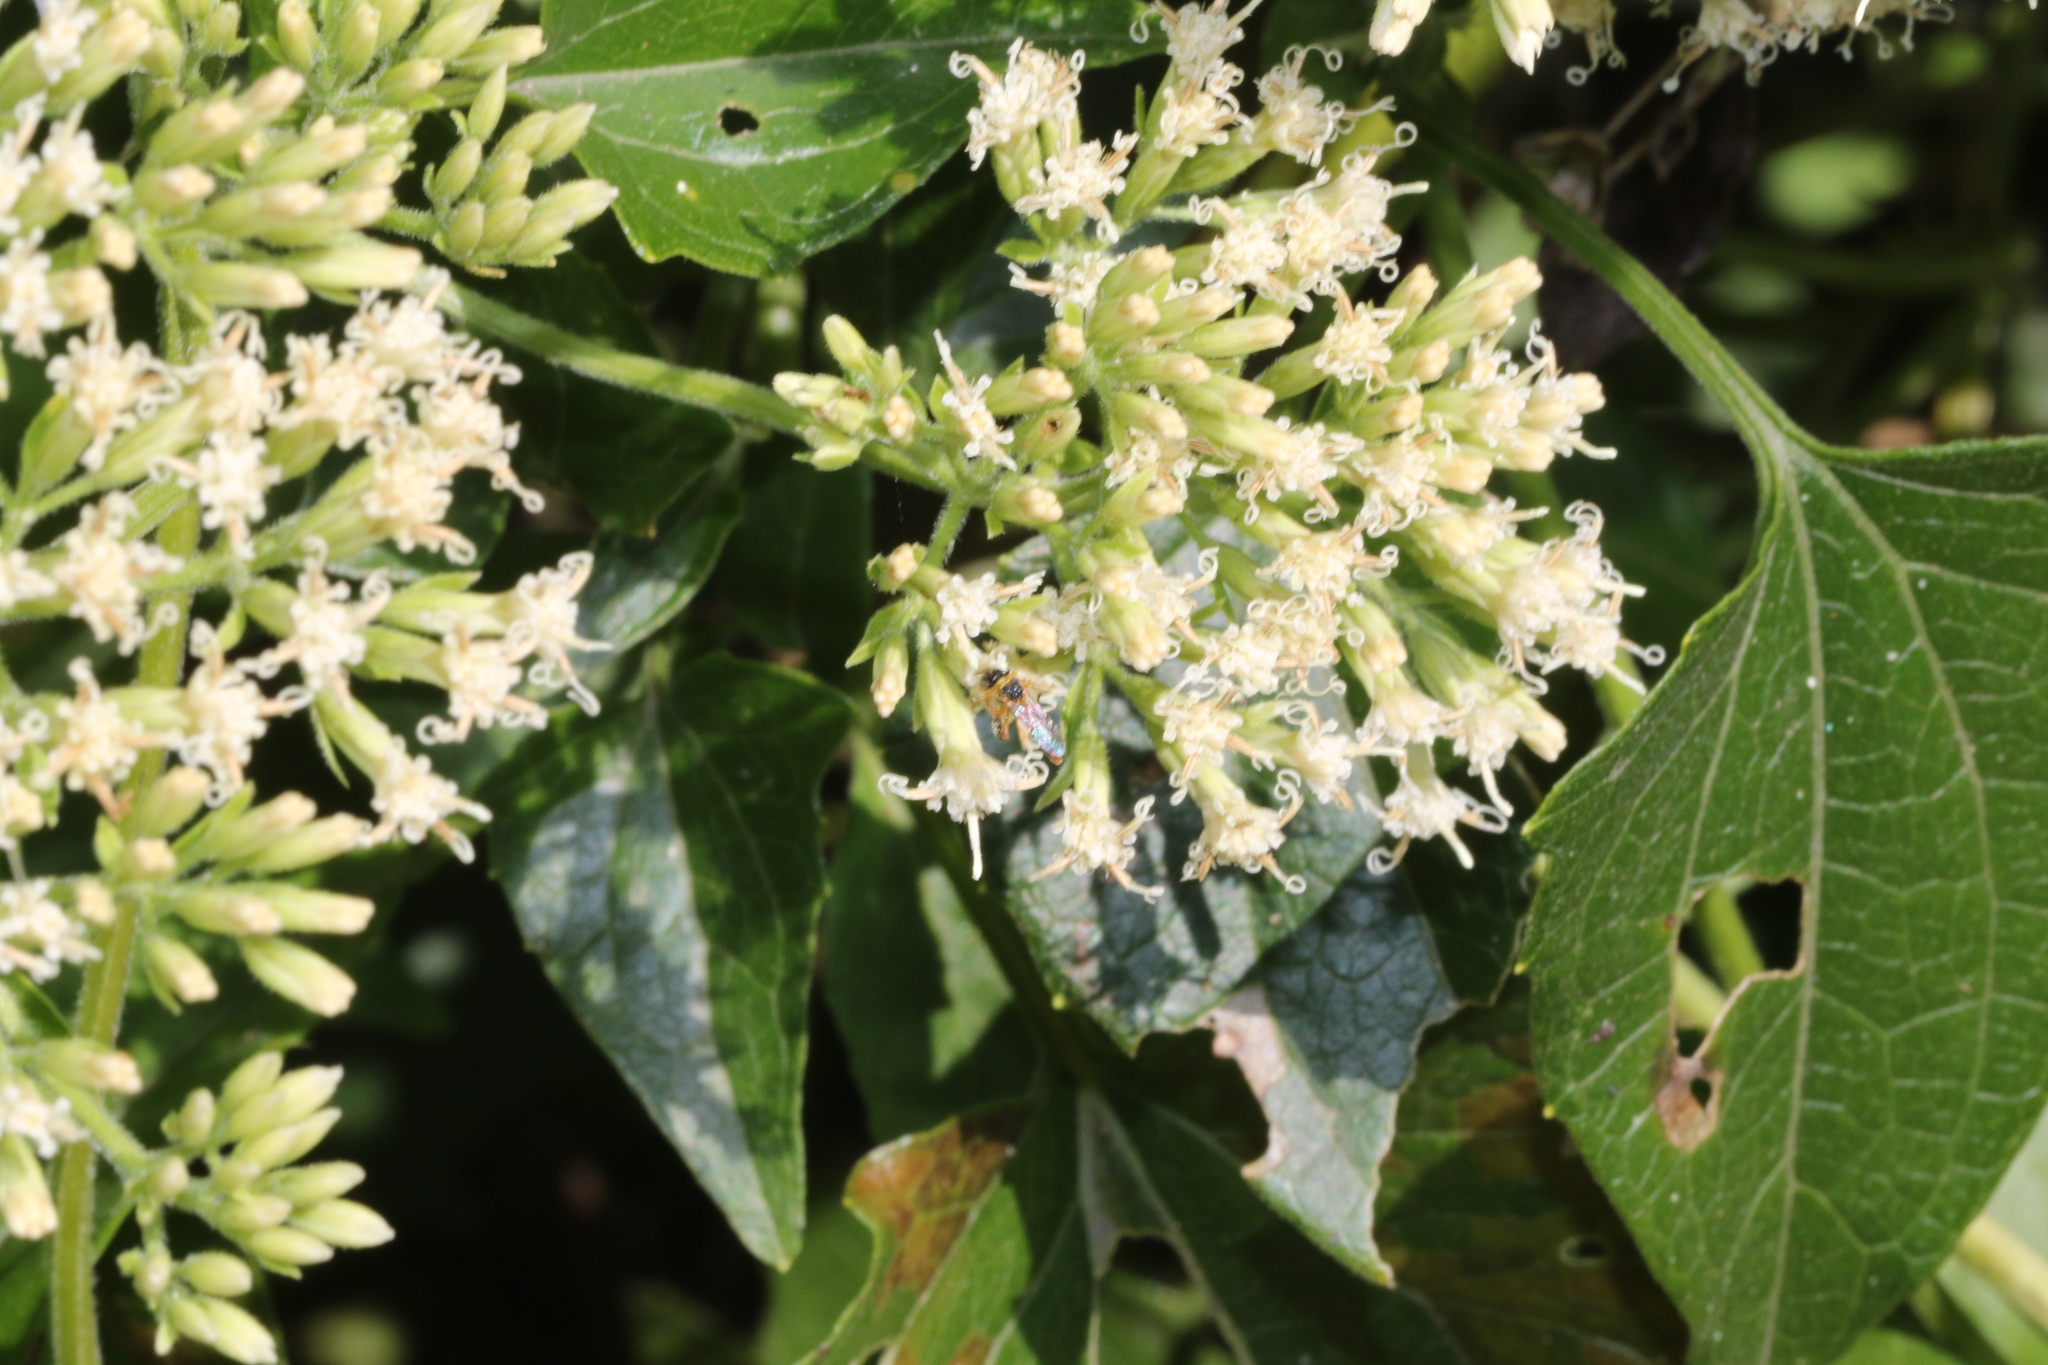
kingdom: Animalia
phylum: Arthropoda
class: Insecta
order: Hymenoptera
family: Apidae
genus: Tetragonisca
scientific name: Tetragonisca angustula
